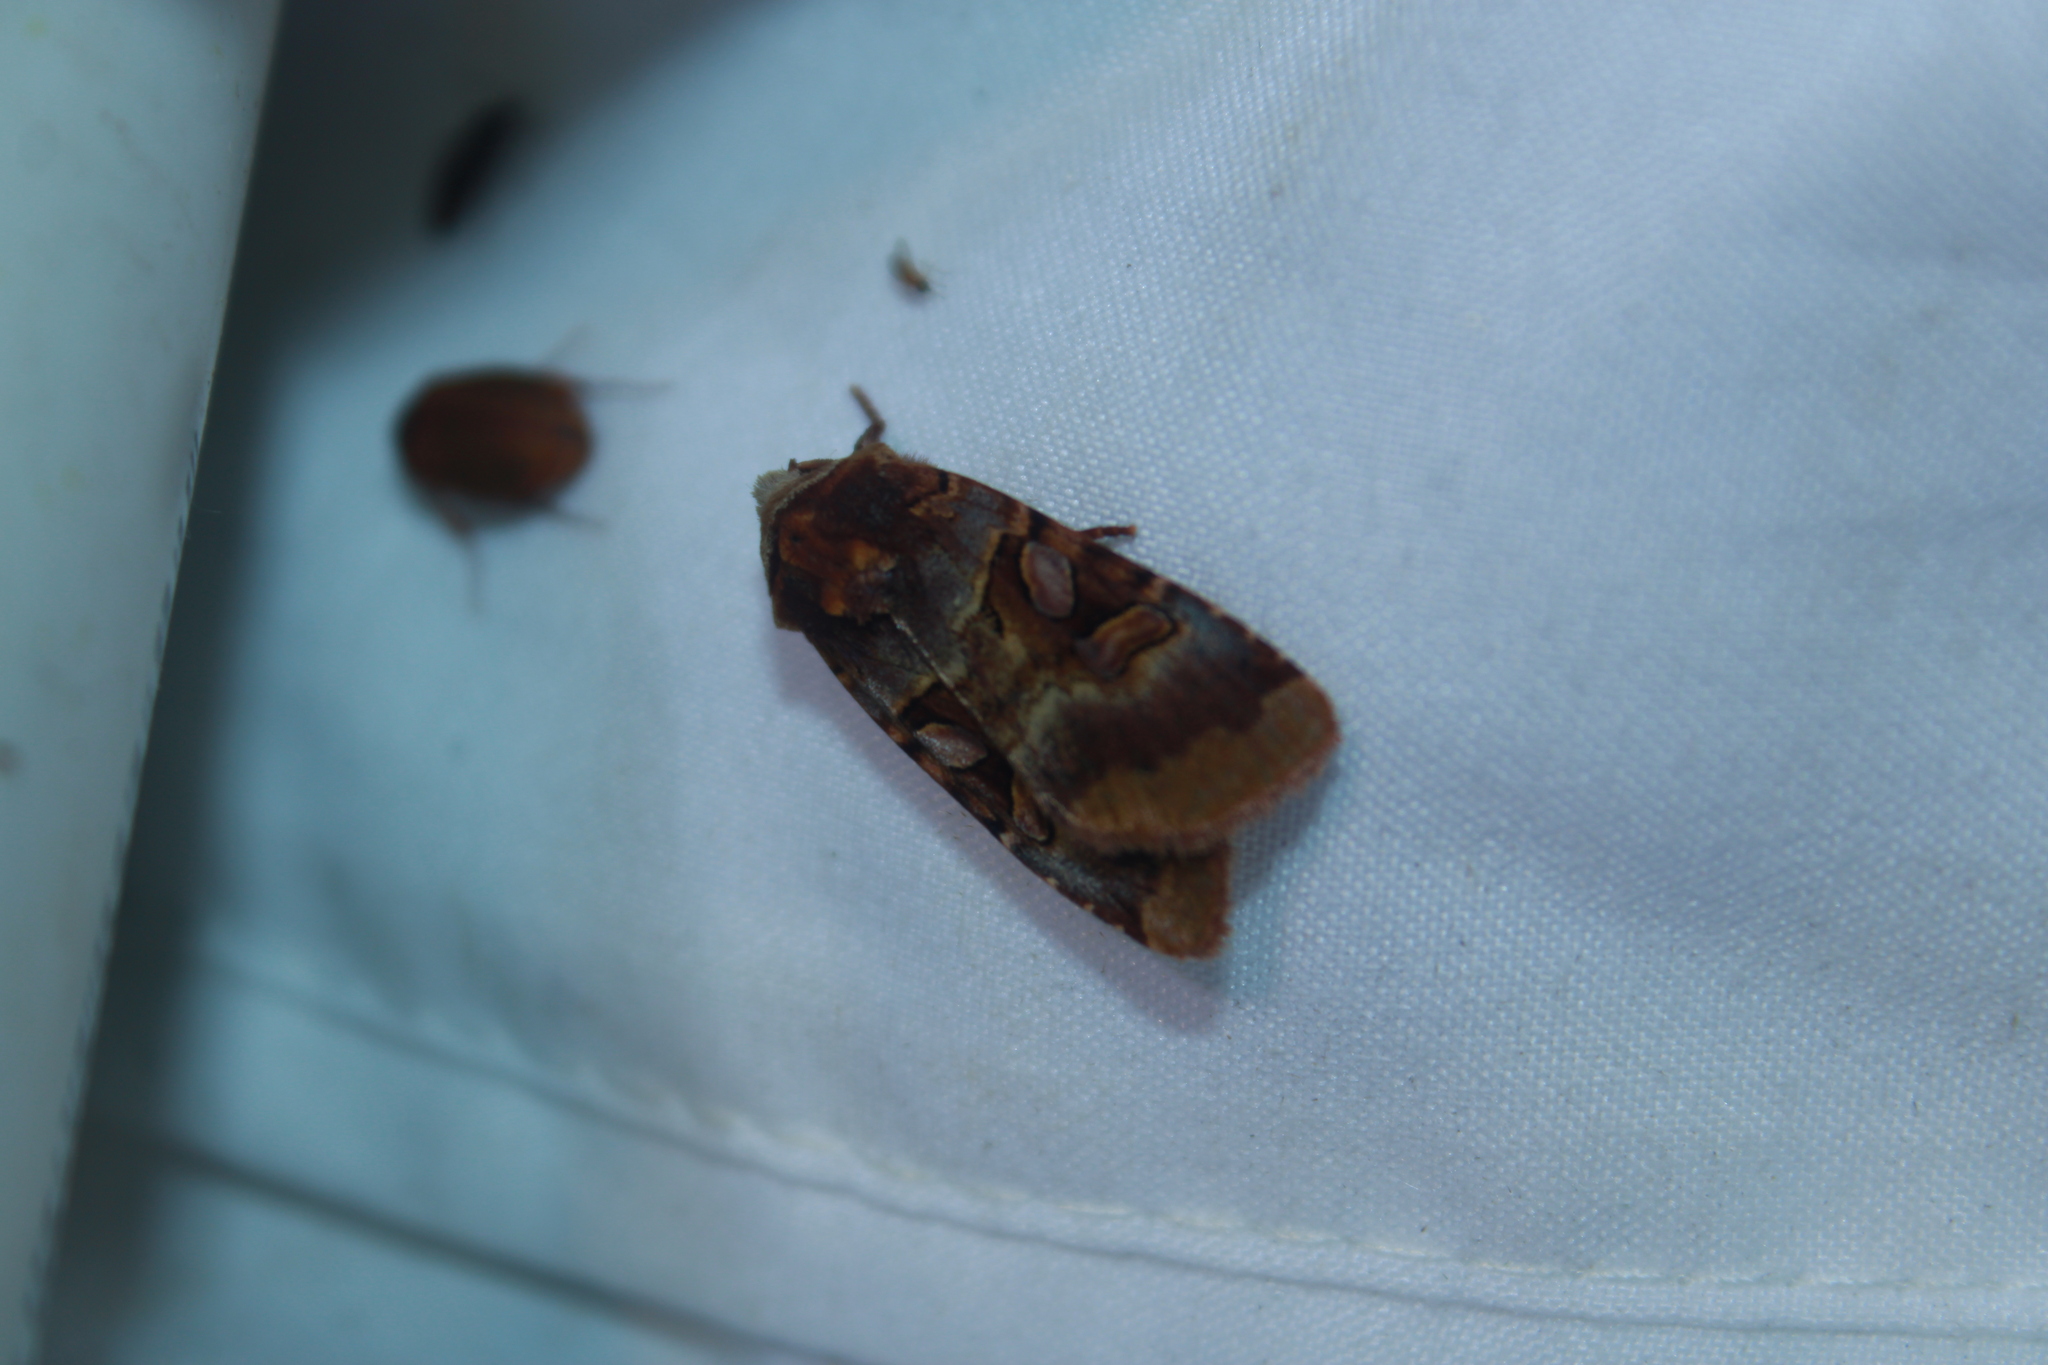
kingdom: Animalia
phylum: Arthropoda
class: Insecta
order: Lepidoptera
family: Noctuidae
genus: Xestia
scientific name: Xestia oblata
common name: Rosy dart
